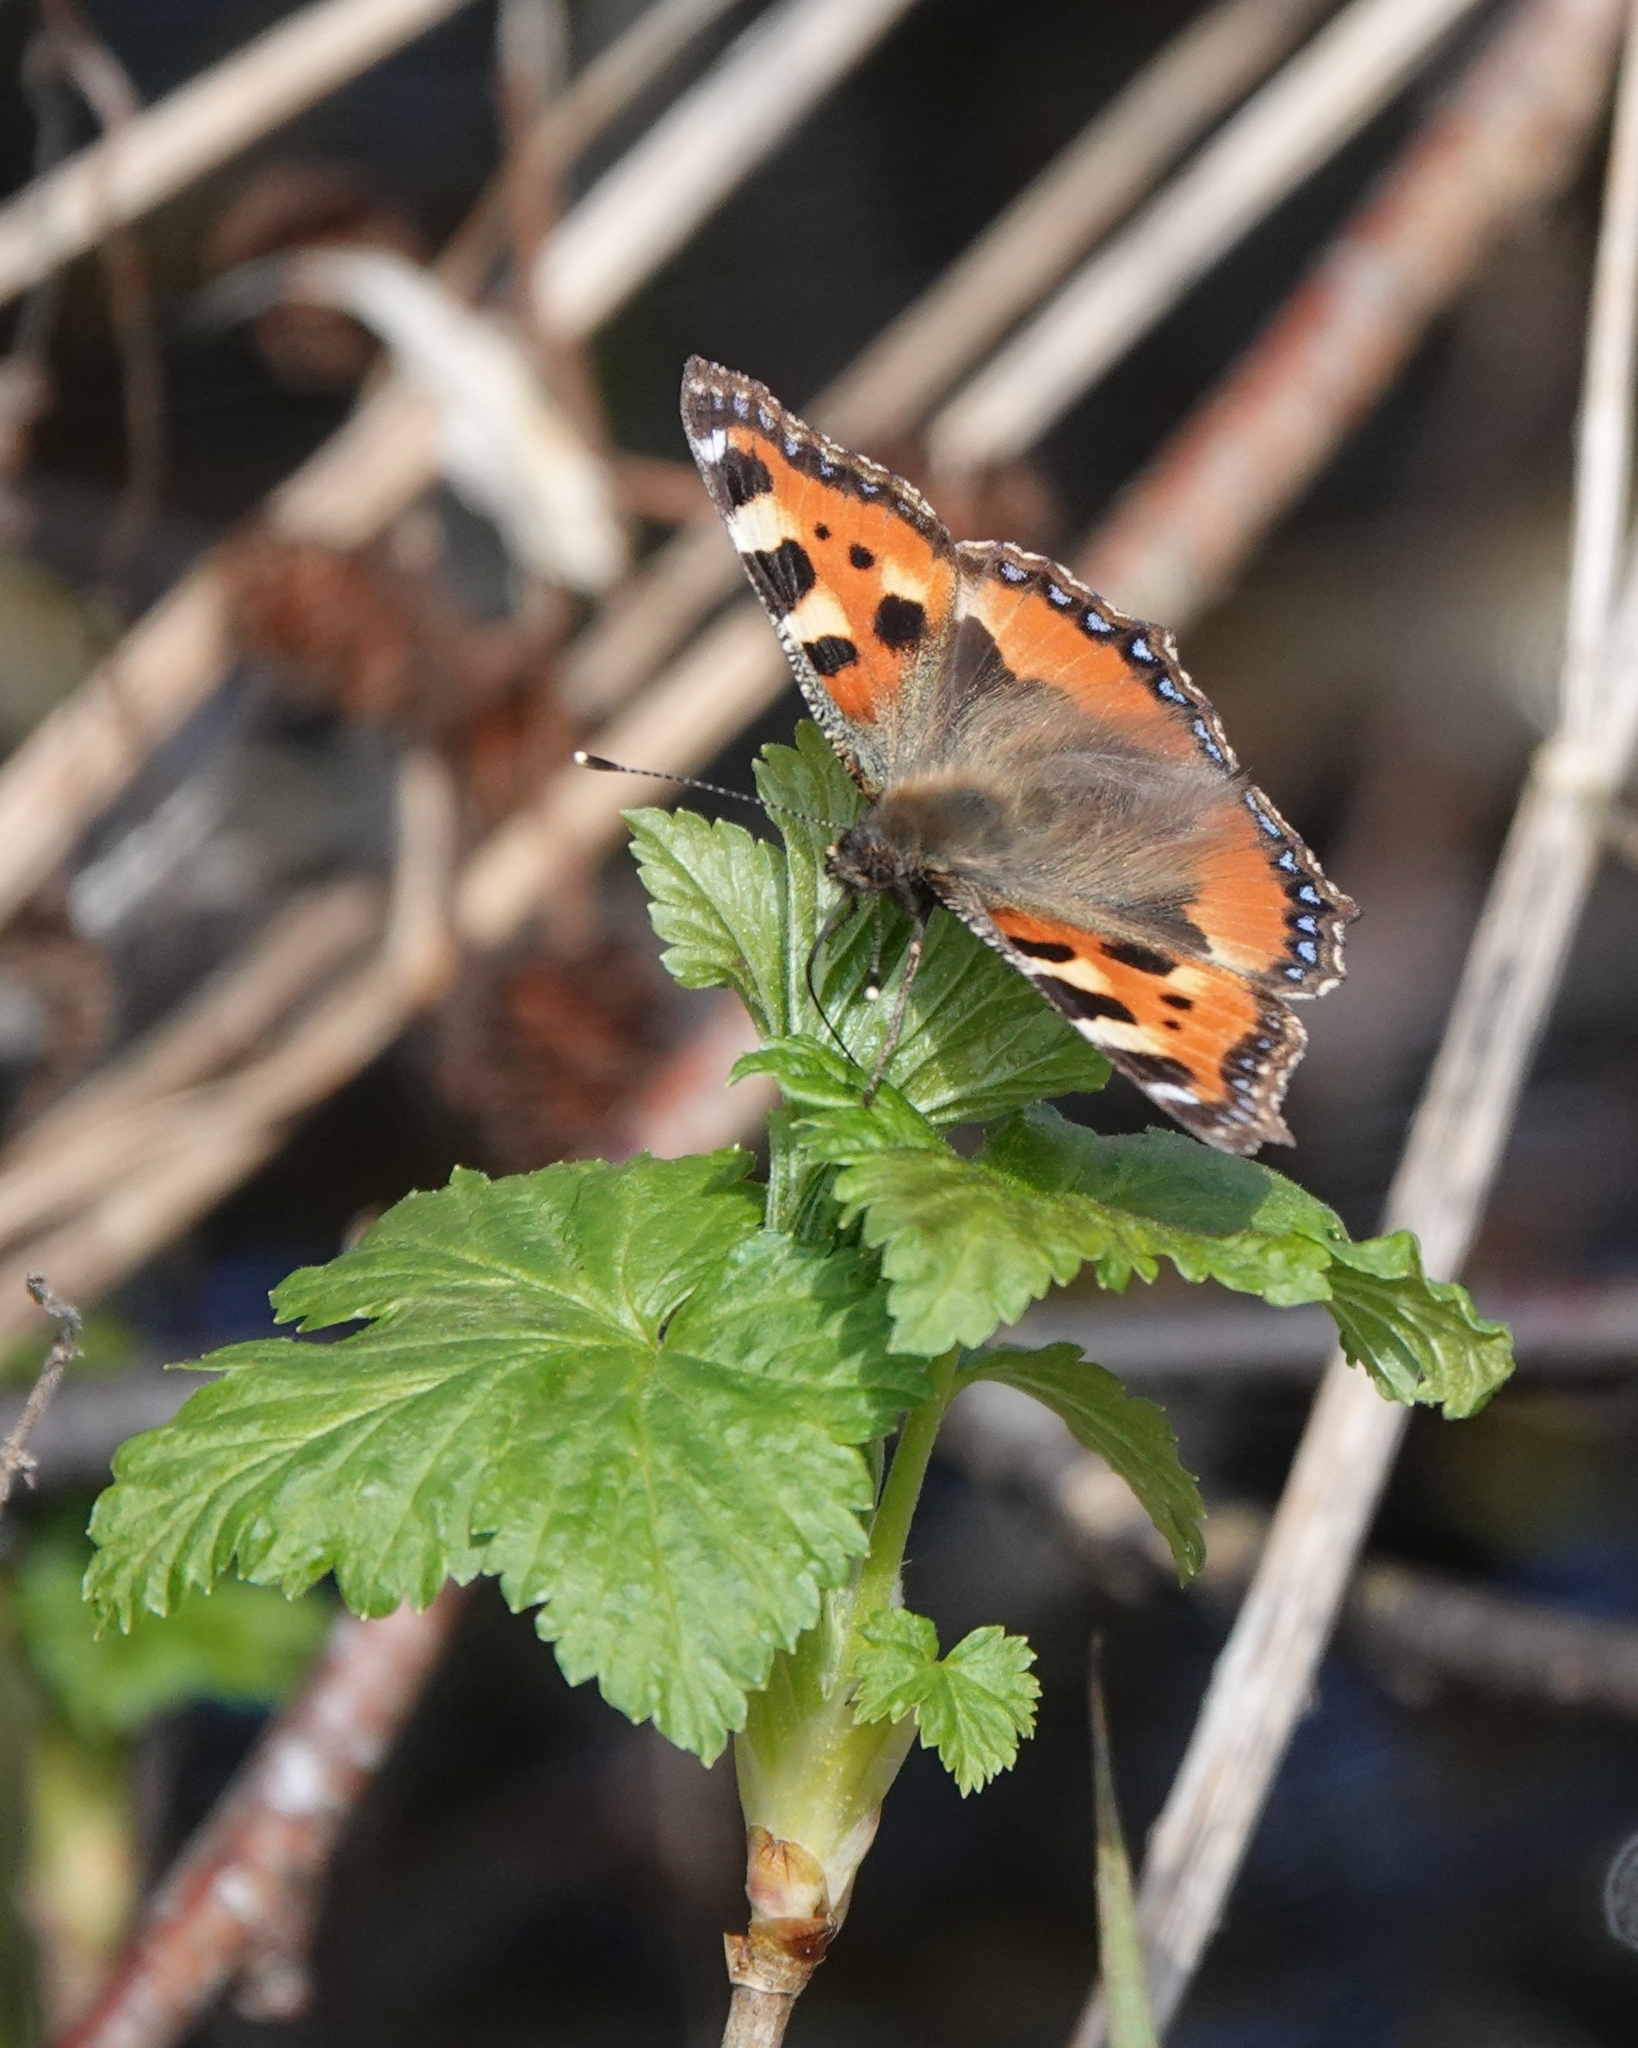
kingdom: Animalia
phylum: Arthropoda
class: Insecta
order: Lepidoptera
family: Nymphalidae
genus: Aglais
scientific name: Aglais urticae
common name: Small tortoiseshell
